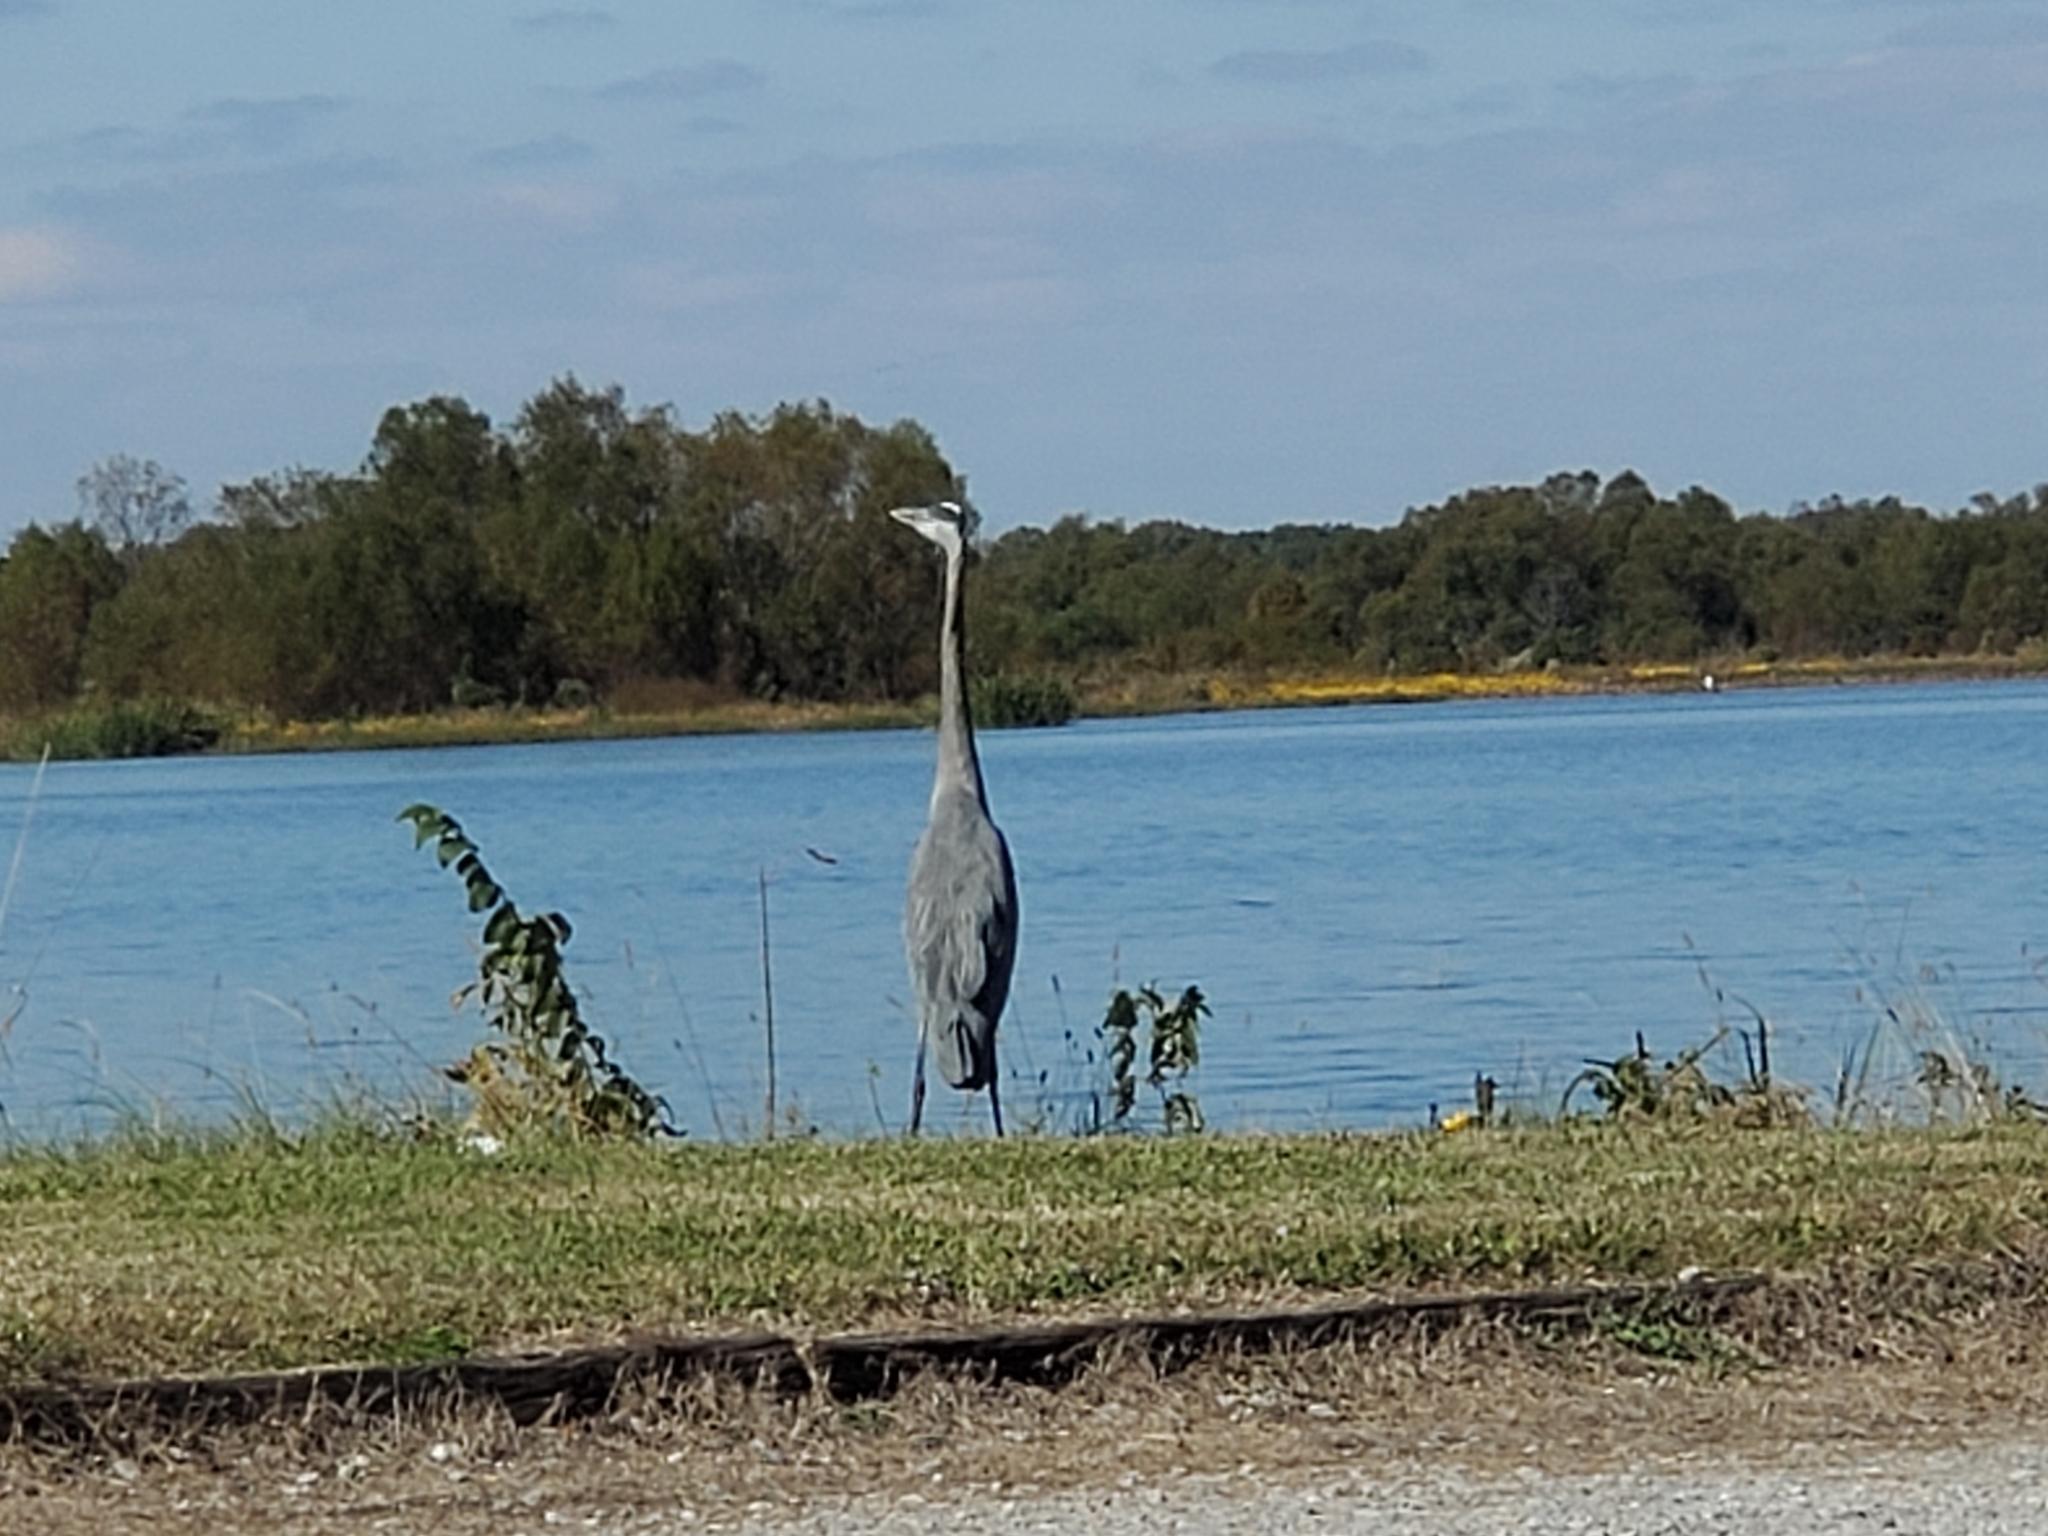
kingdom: Animalia
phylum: Chordata
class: Aves
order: Pelecaniformes
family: Ardeidae
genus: Ardea
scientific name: Ardea herodias
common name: Great blue heron
